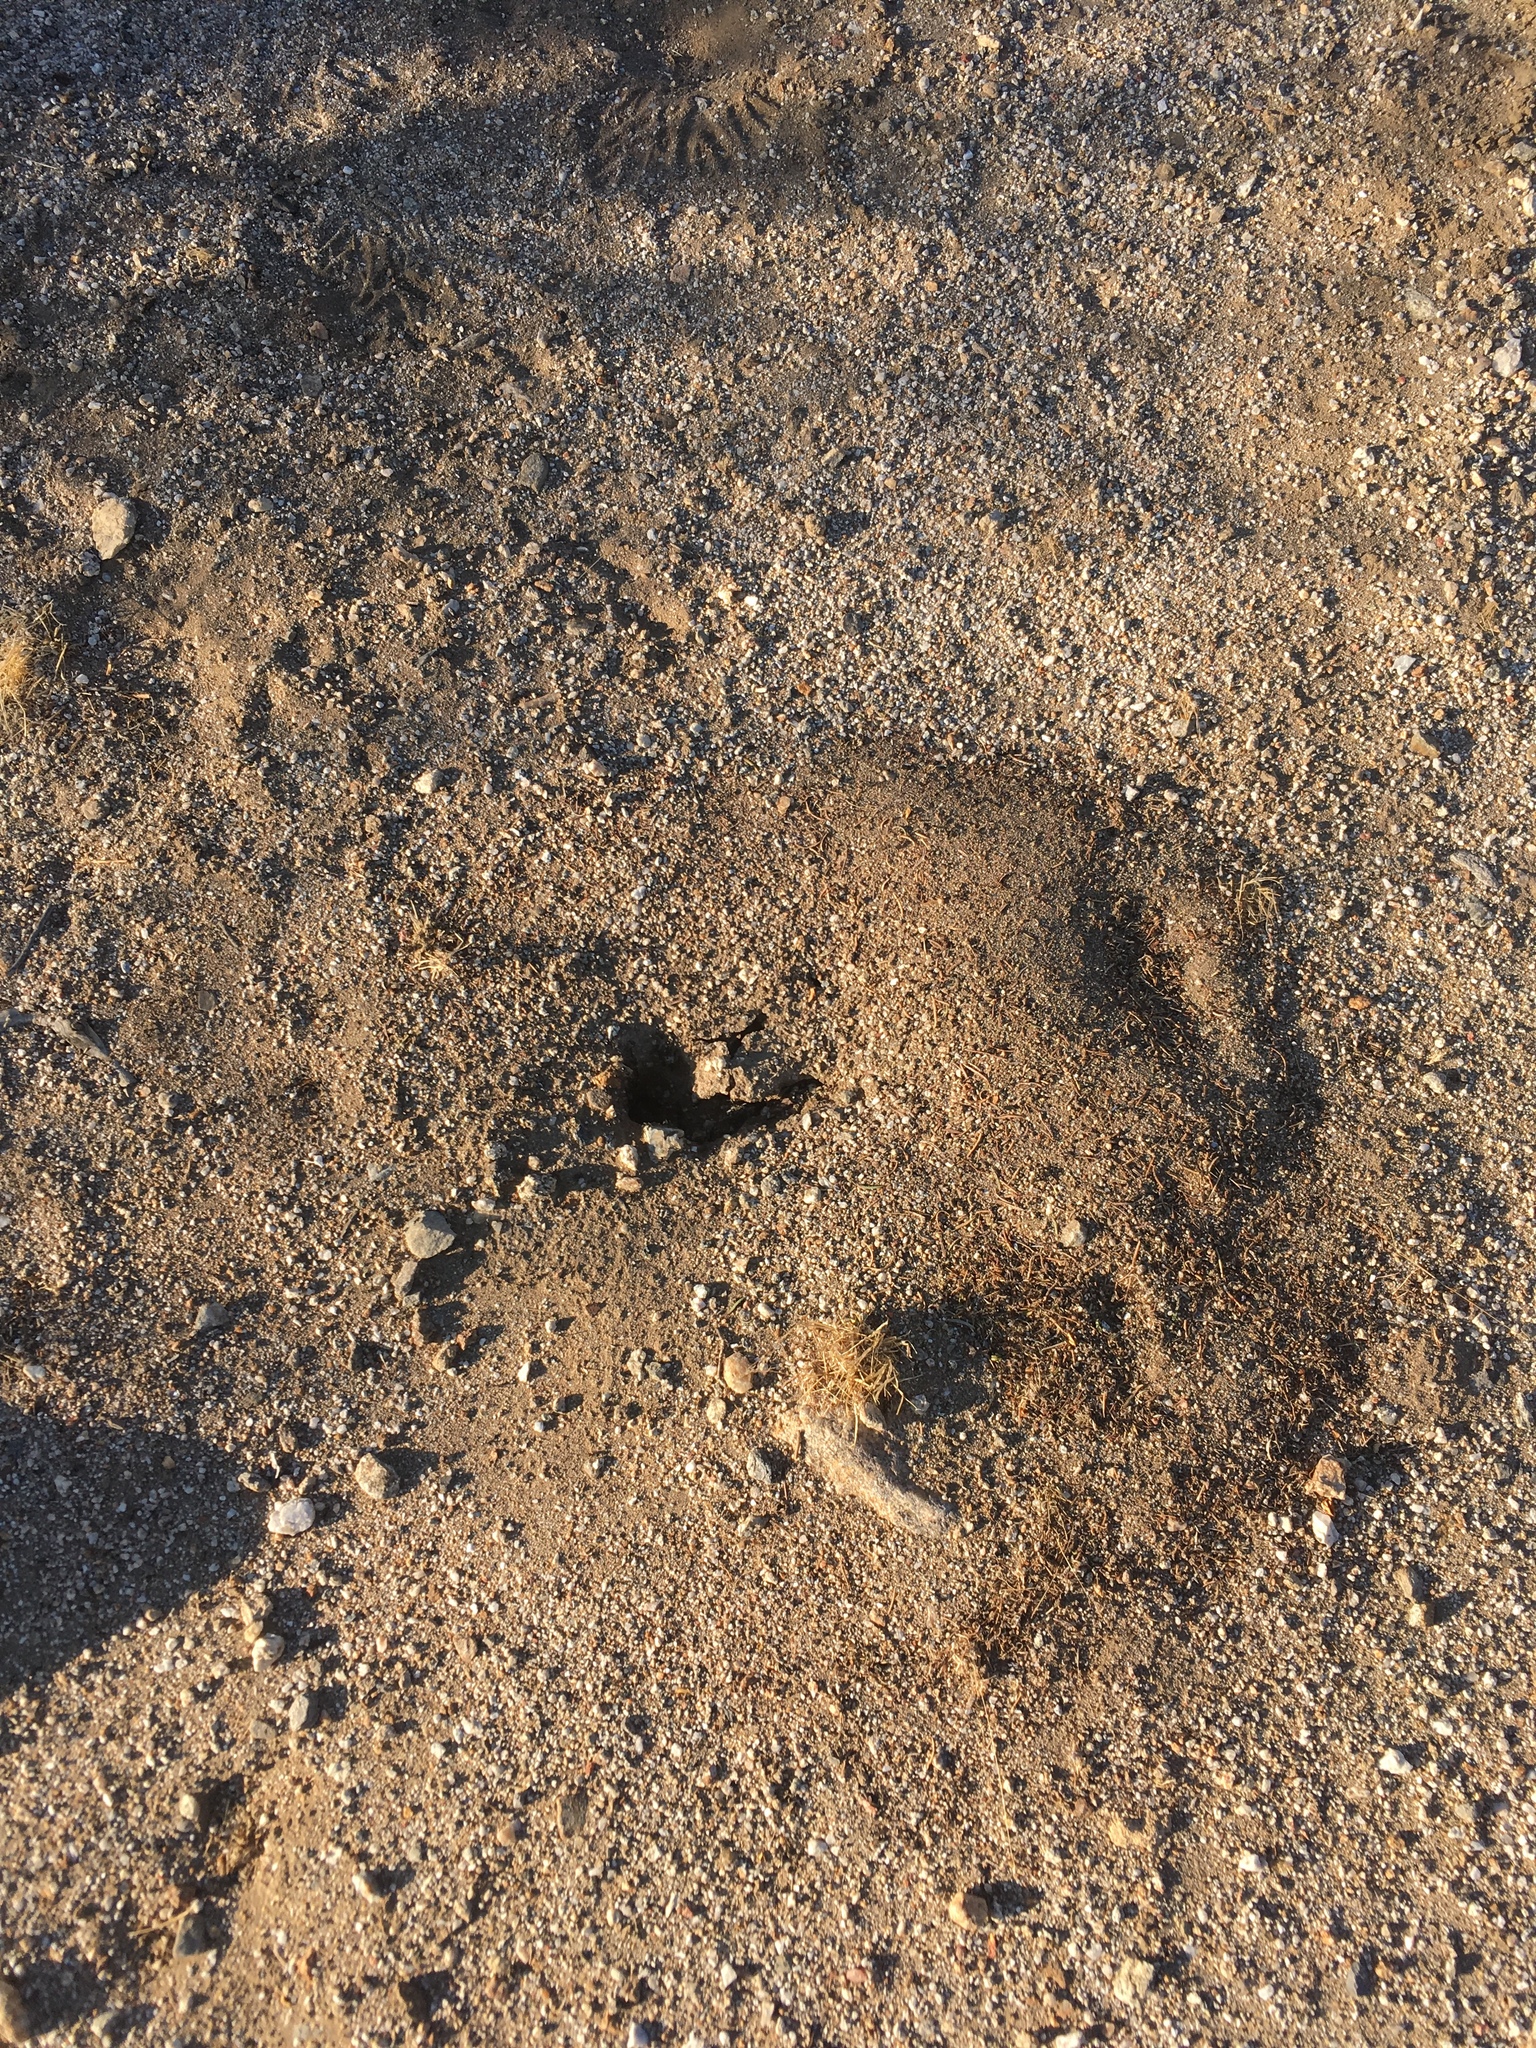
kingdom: Animalia
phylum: Arthropoda
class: Insecta
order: Hymenoptera
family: Formicidae
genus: Messor
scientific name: Messor pergandei
